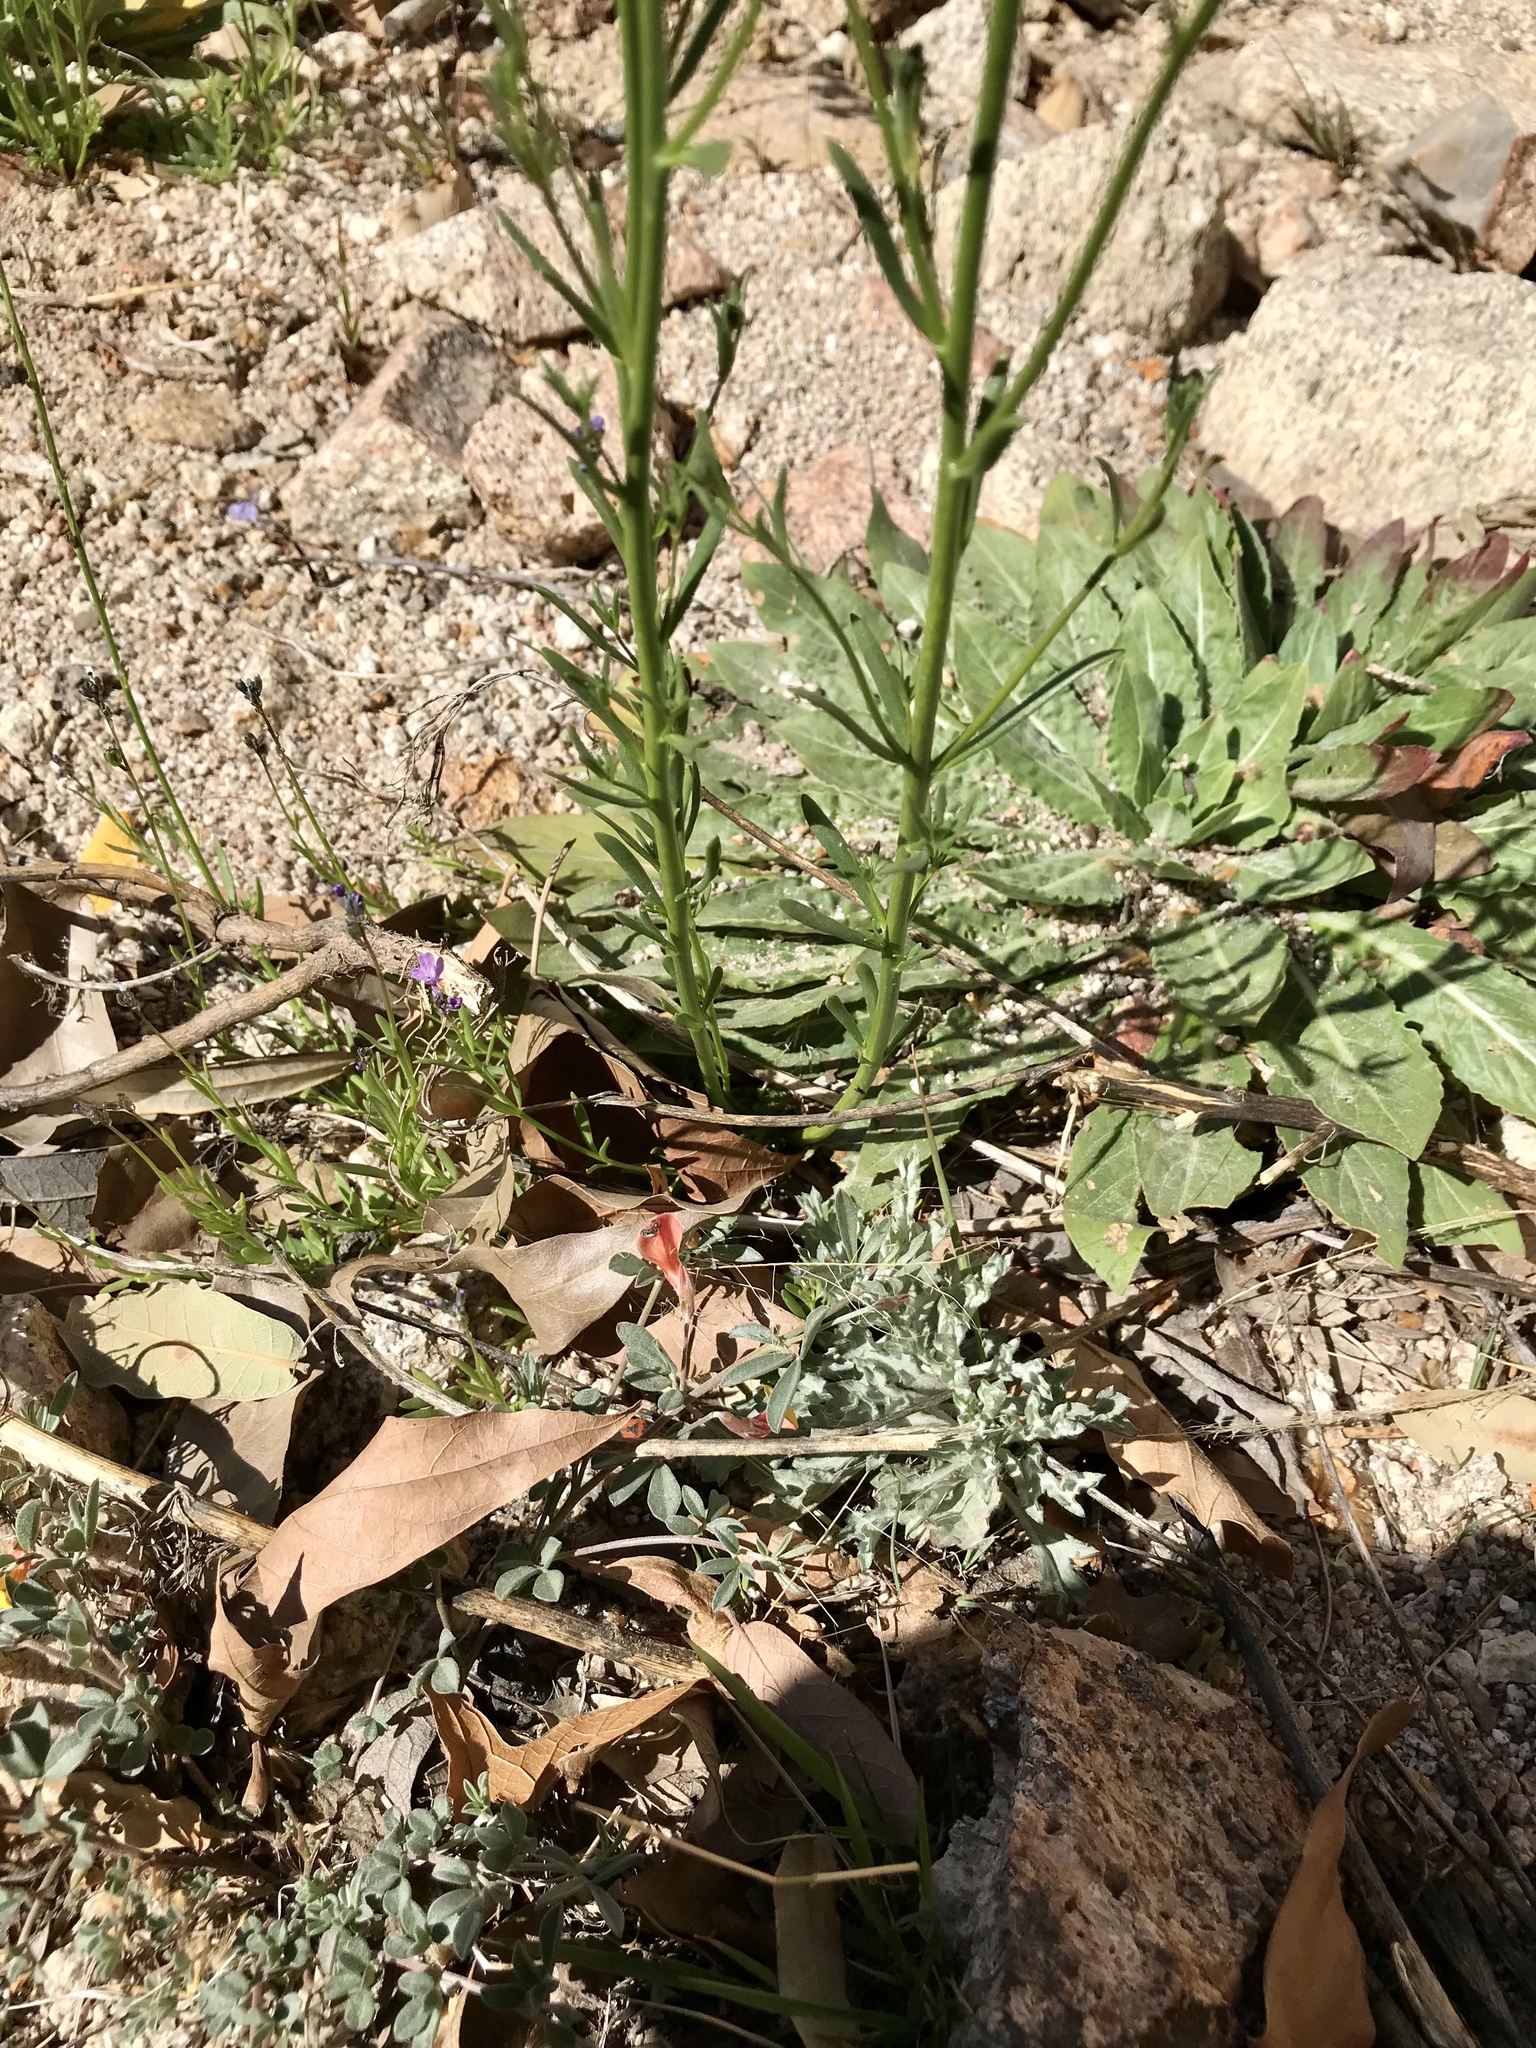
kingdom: Plantae
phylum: Tracheophyta
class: Magnoliopsida
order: Lamiales
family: Plantaginaceae
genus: Nuttallanthus
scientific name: Nuttallanthus texanus
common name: Texas toadflax
